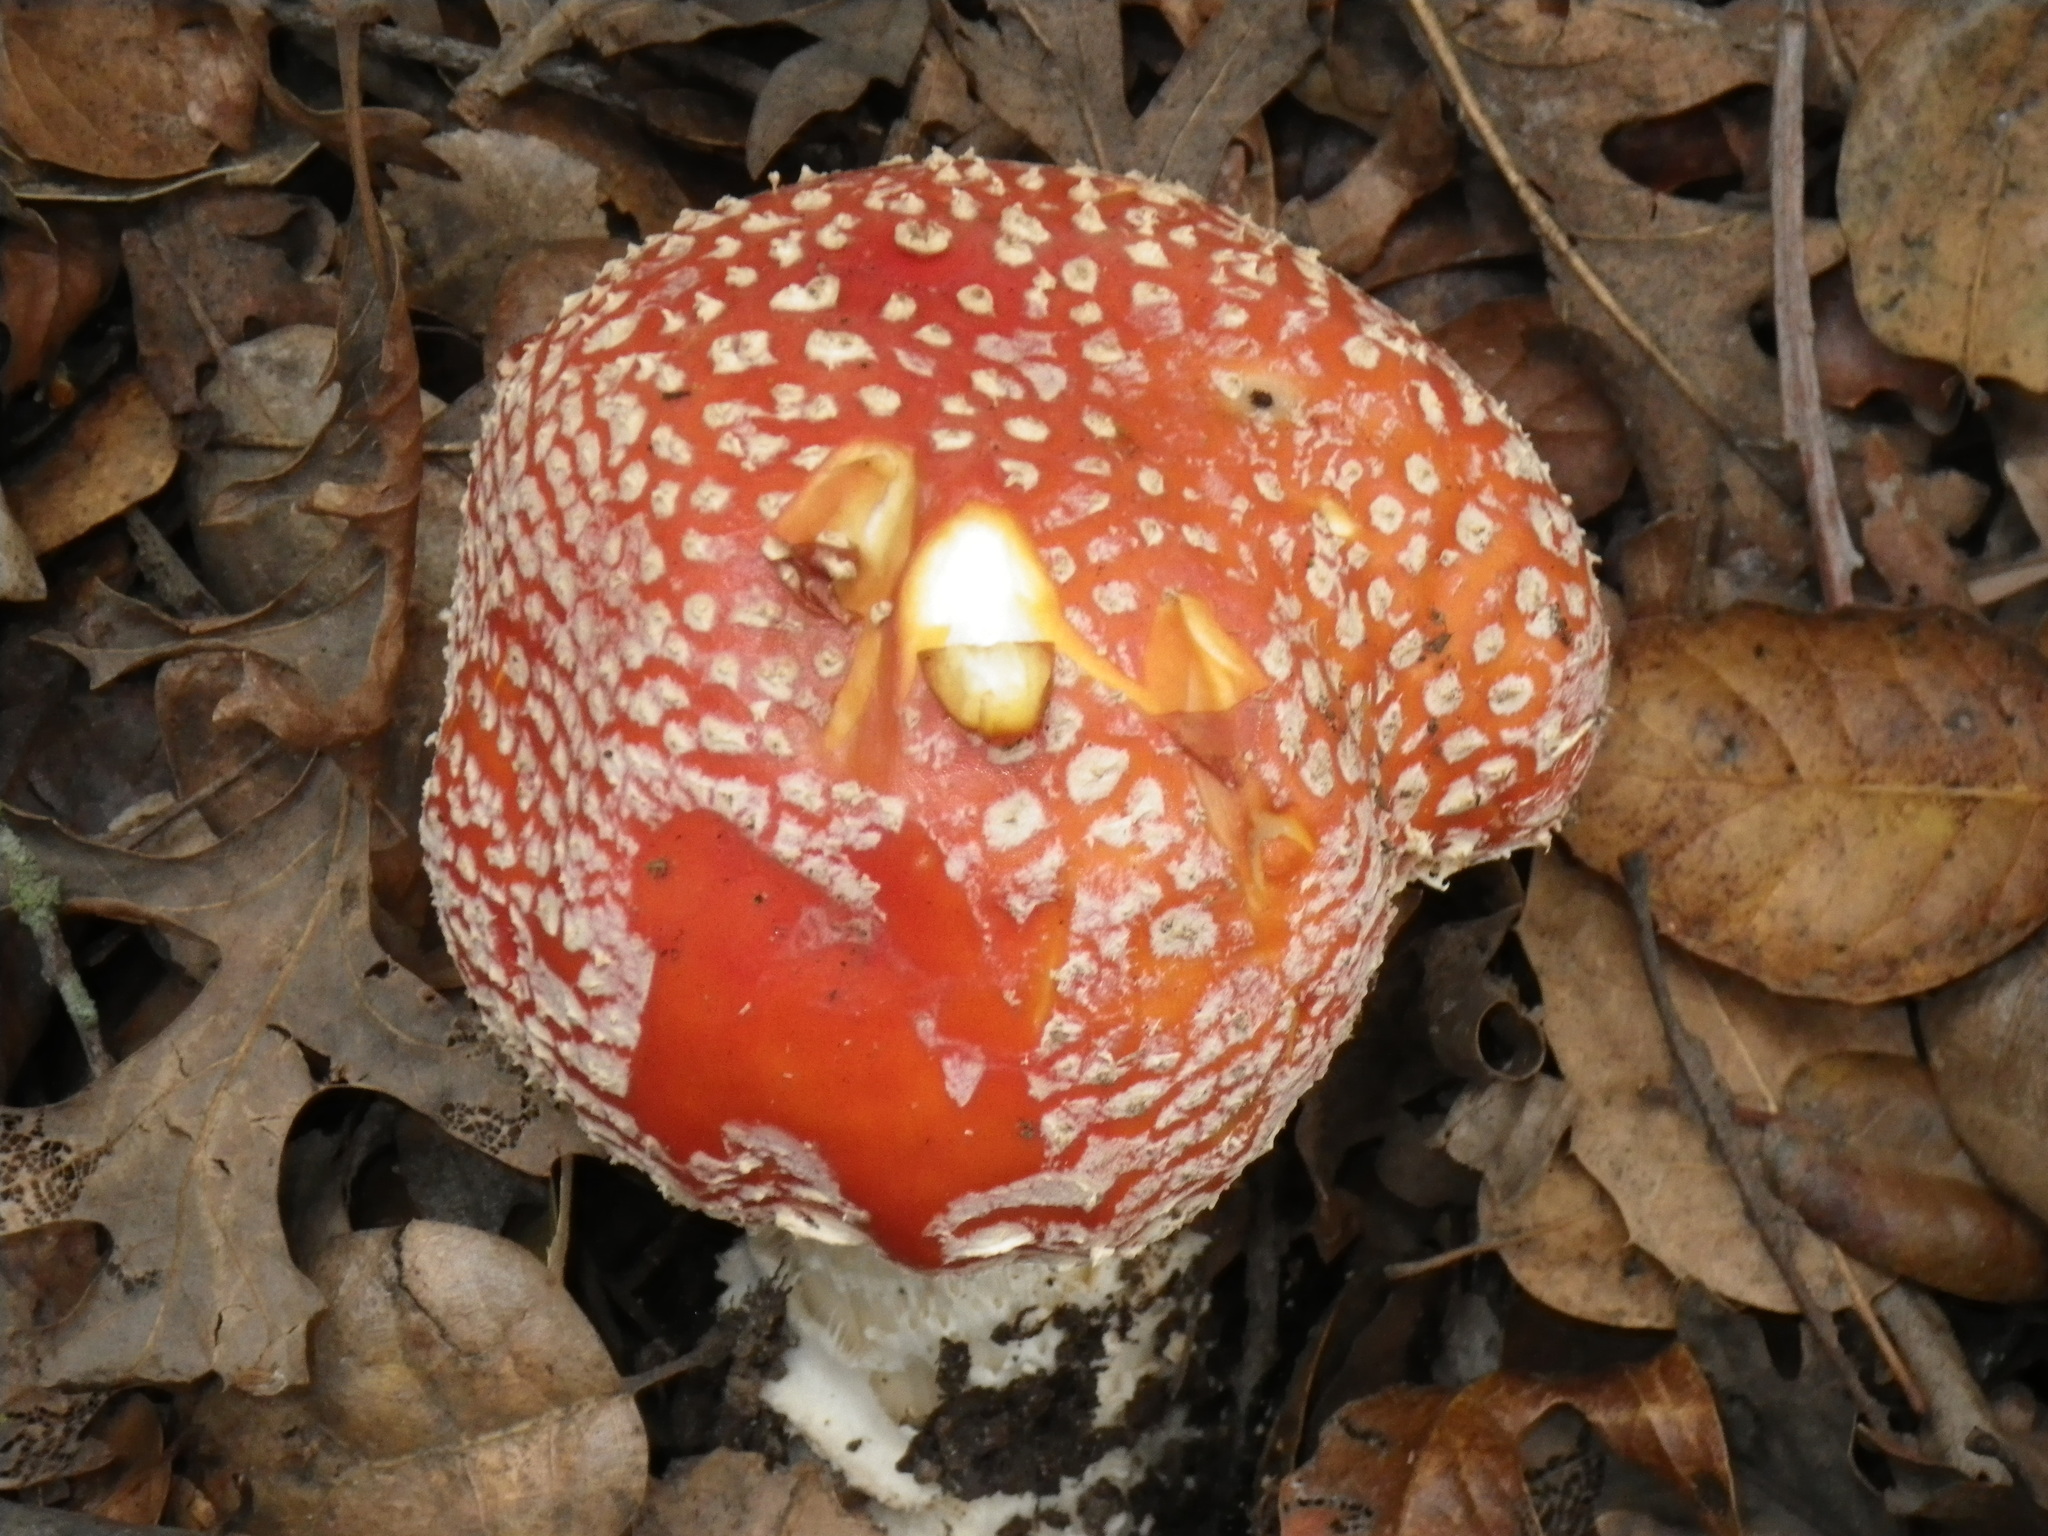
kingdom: Fungi
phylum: Basidiomycota
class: Agaricomycetes
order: Agaricales
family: Amanitaceae
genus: Amanita
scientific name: Amanita muscaria
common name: Fly agaric
